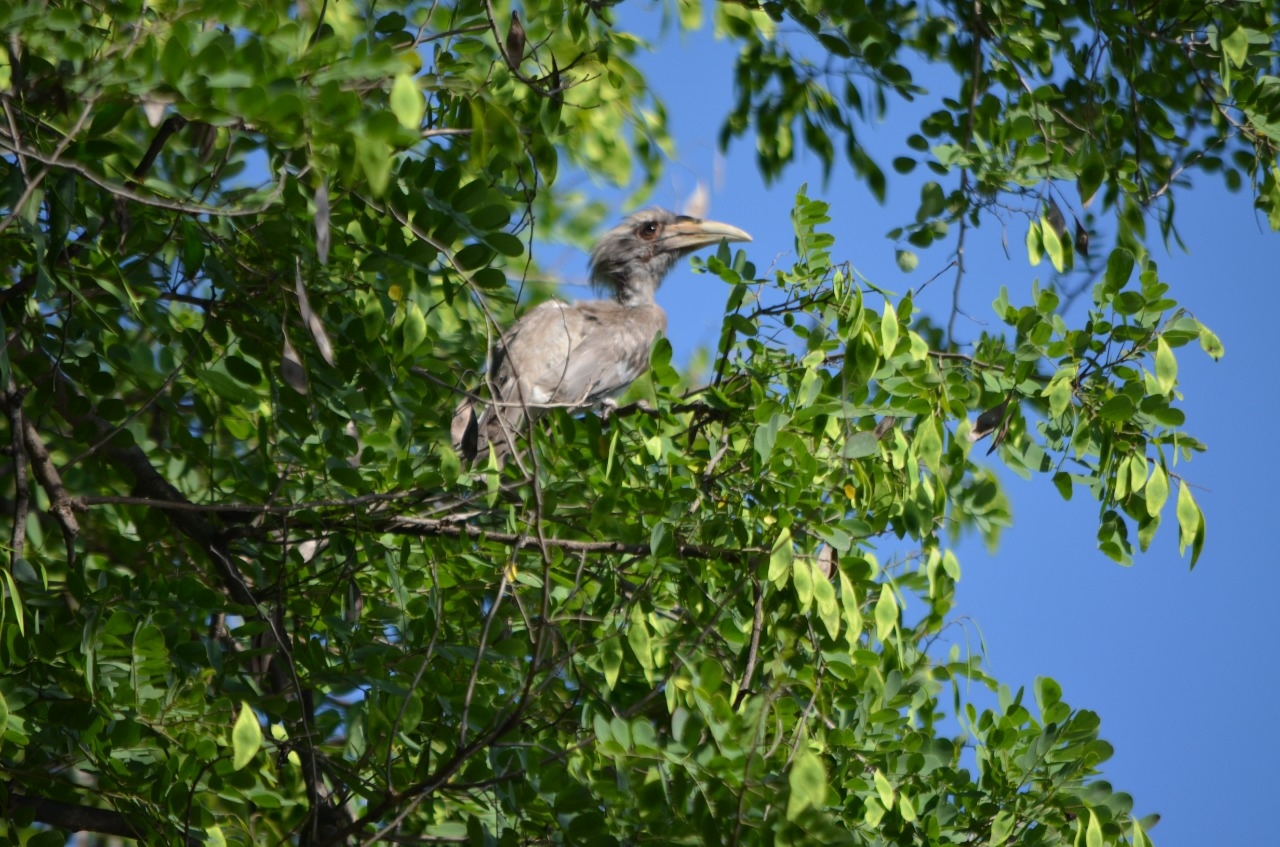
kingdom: Animalia
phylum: Chordata
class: Aves
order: Bucerotiformes
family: Bucerotidae
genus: Ocyceros
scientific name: Ocyceros birostris
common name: Indian grey hornbill
